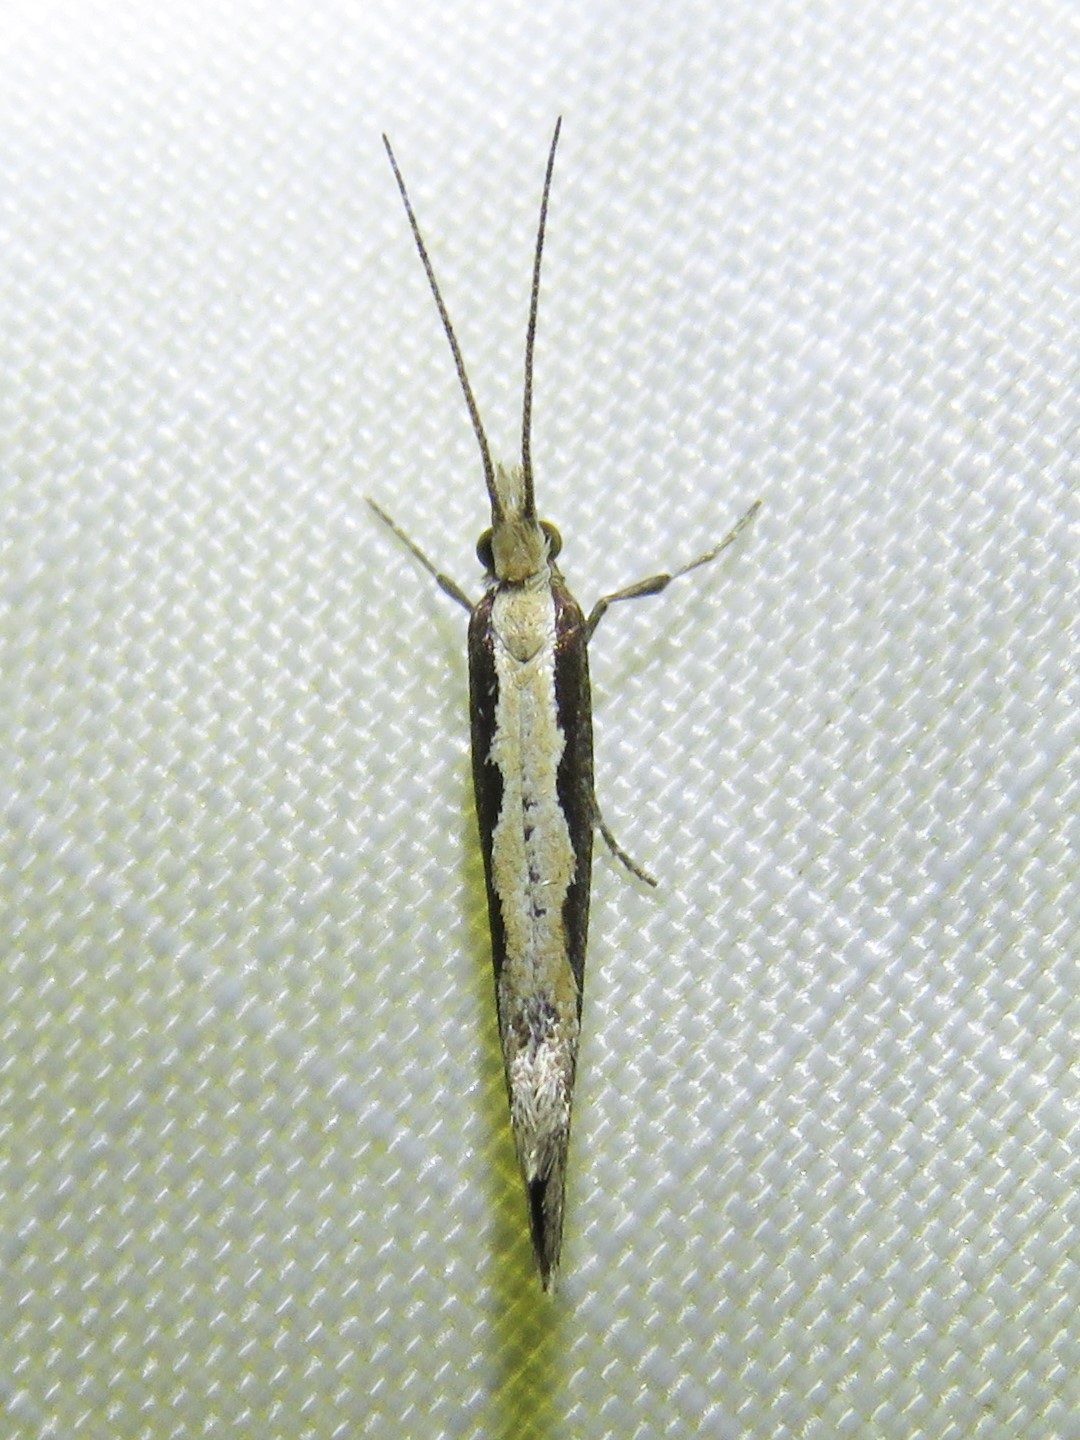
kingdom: Animalia
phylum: Arthropoda
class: Insecta
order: Lepidoptera
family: Plutellidae
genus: Plutella
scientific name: Plutella xylostella
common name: Diamond-back moth
